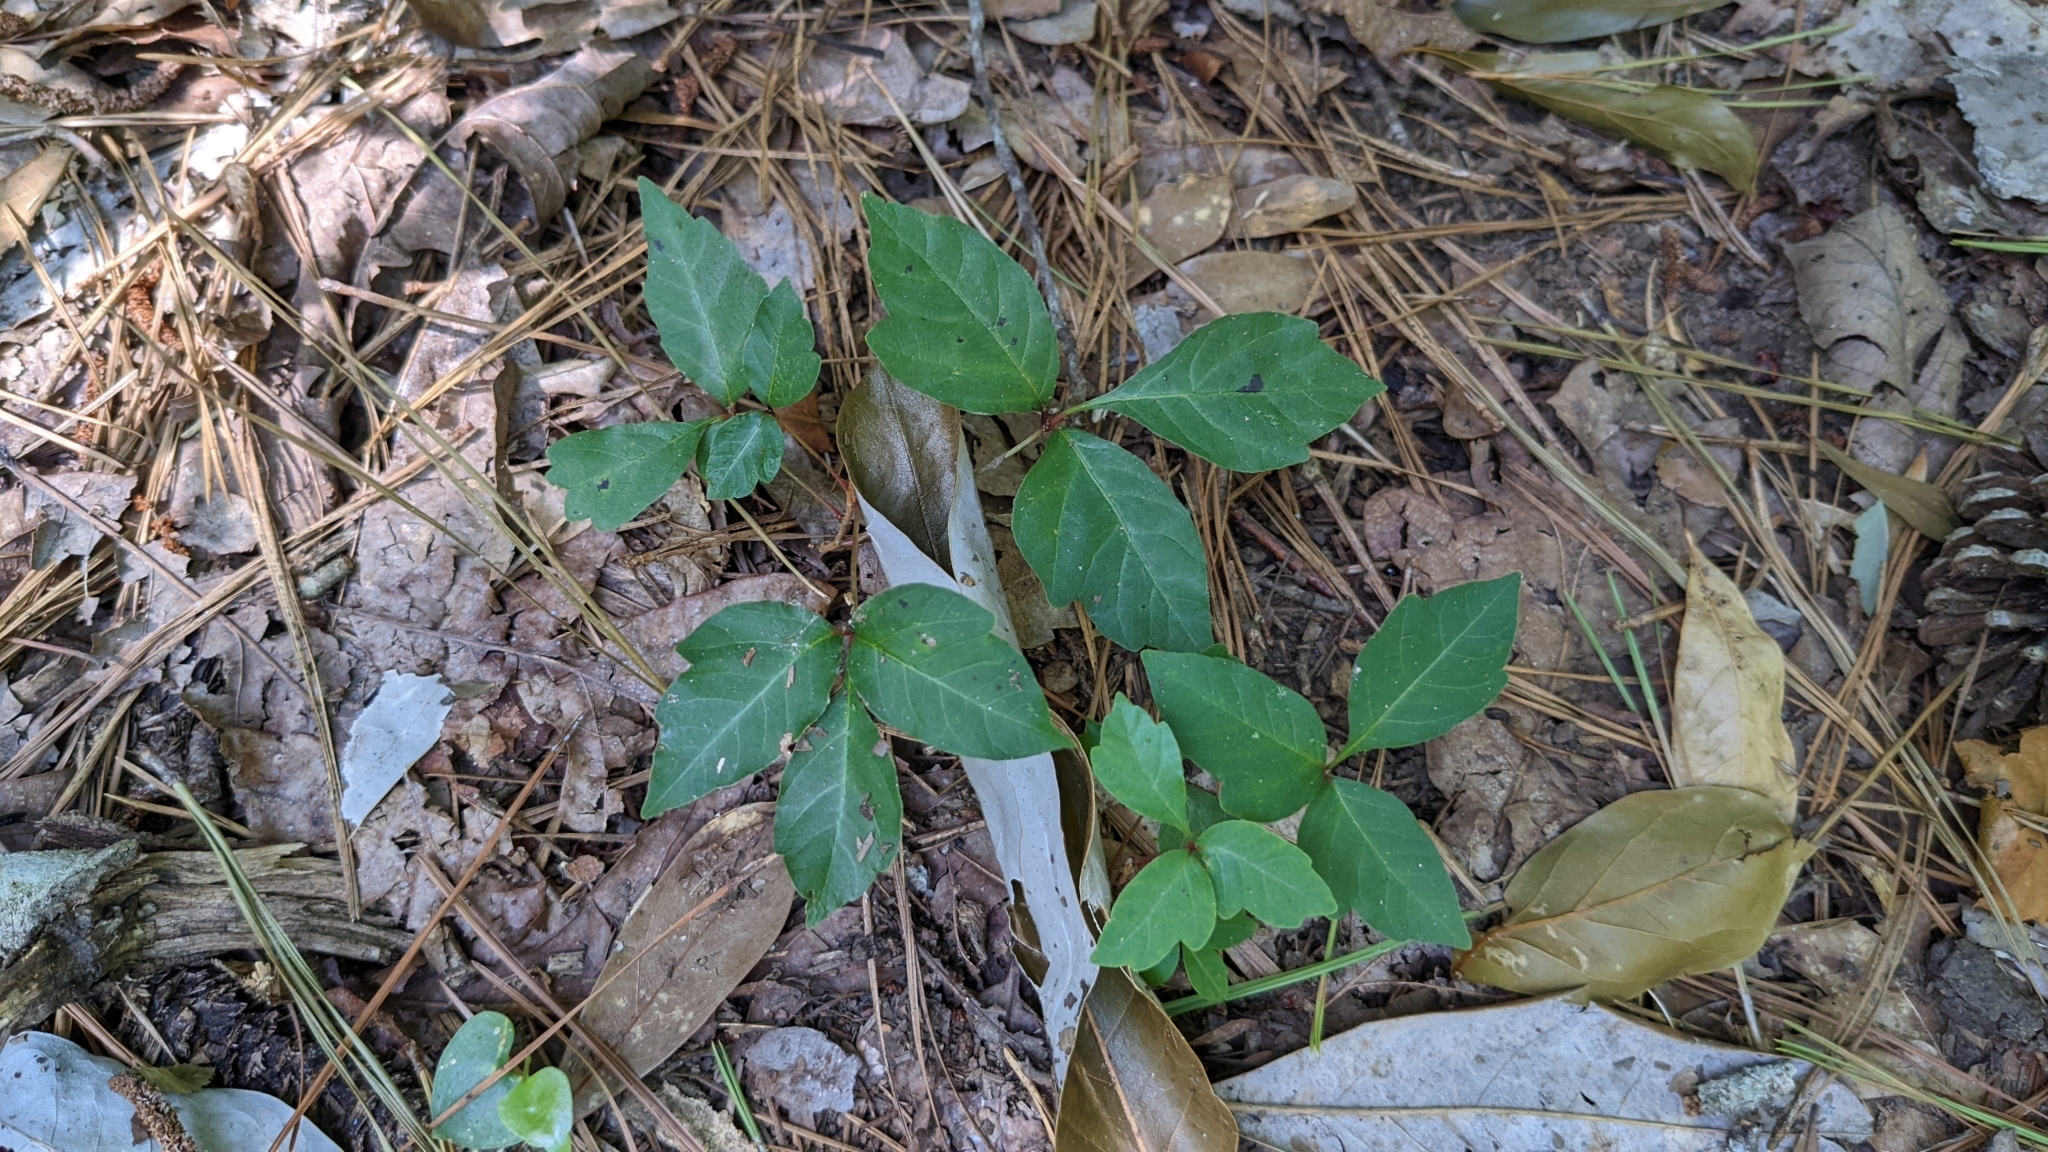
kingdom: Plantae
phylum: Tracheophyta
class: Magnoliopsida
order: Sapindales
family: Anacardiaceae
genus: Toxicodendron
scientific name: Toxicodendron radicans
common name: Poison ivy
